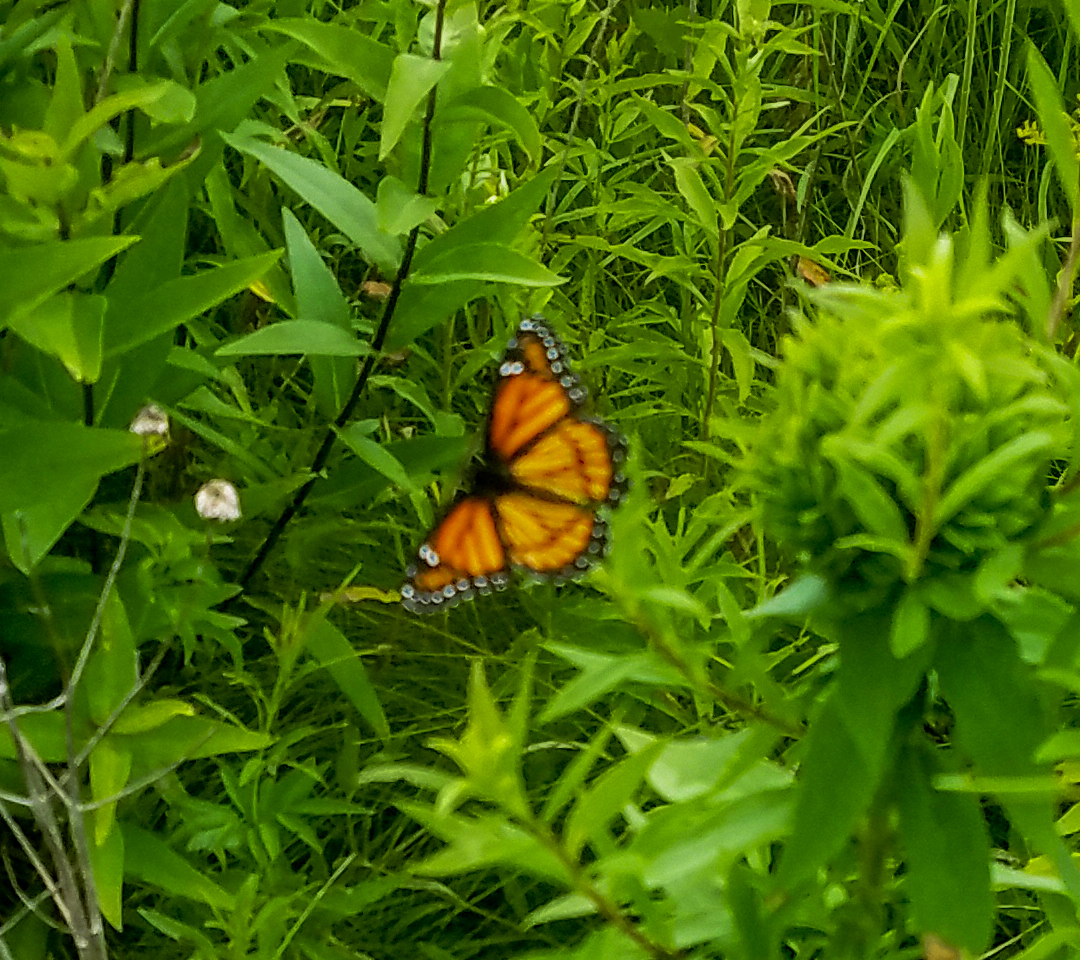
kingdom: Animalia
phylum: Arthropoda
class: Insecta
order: Lepidoptera
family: Nymphalidae
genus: Limenitis
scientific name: Limenitis archippus
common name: Viceroy
